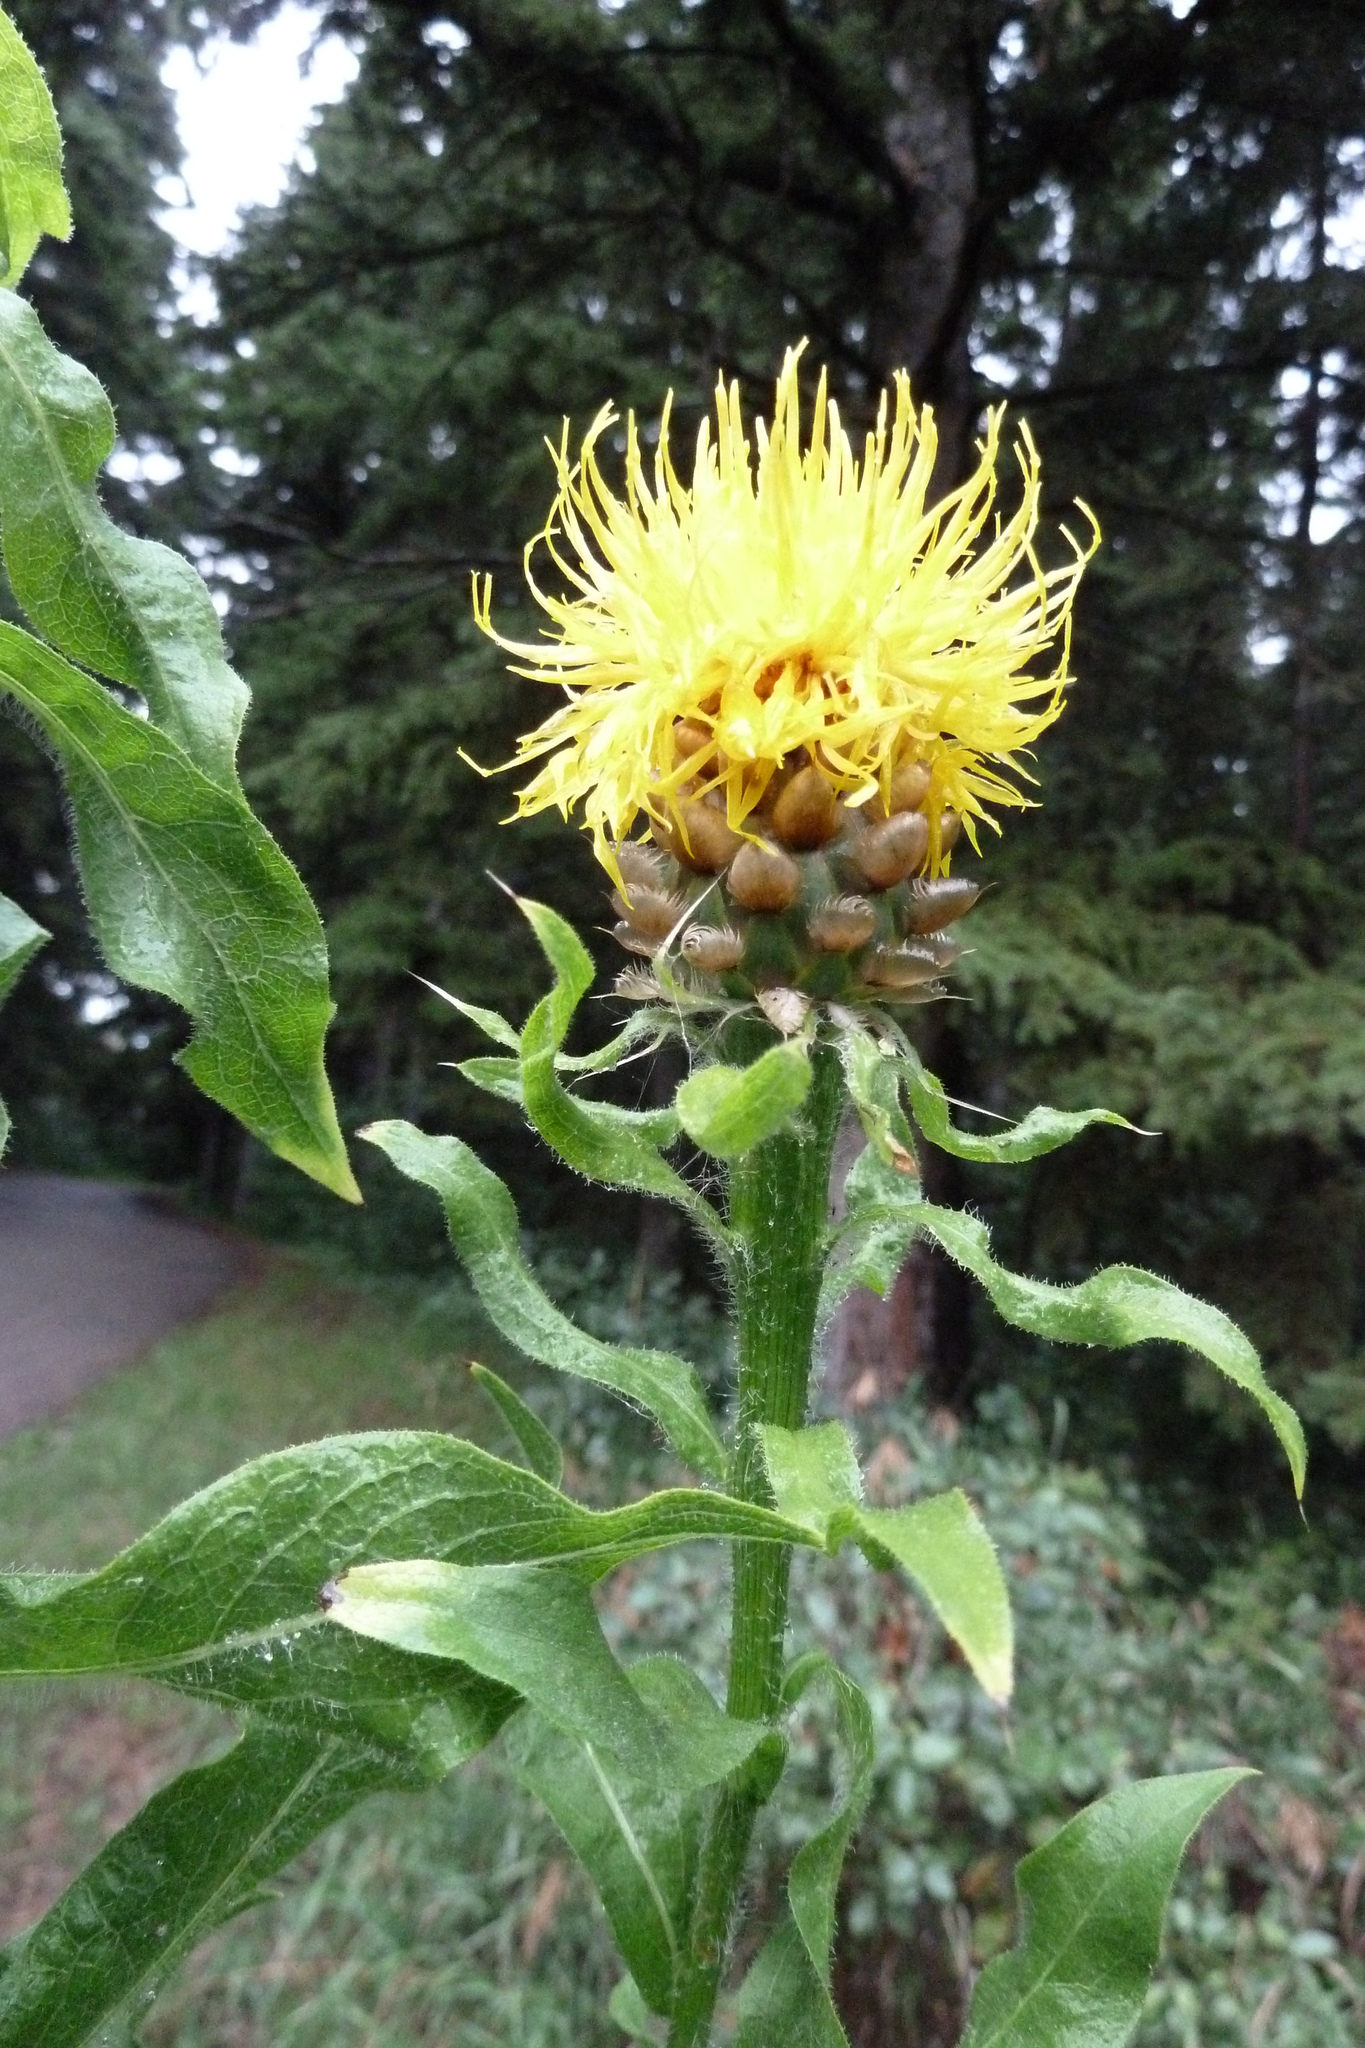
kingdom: Plantae
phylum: Tracheophyta
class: Magnoliopsida
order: Asterales
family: Asteraceae
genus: Centaurea
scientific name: Centaurea macrocephala
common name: Big-head knapweed
